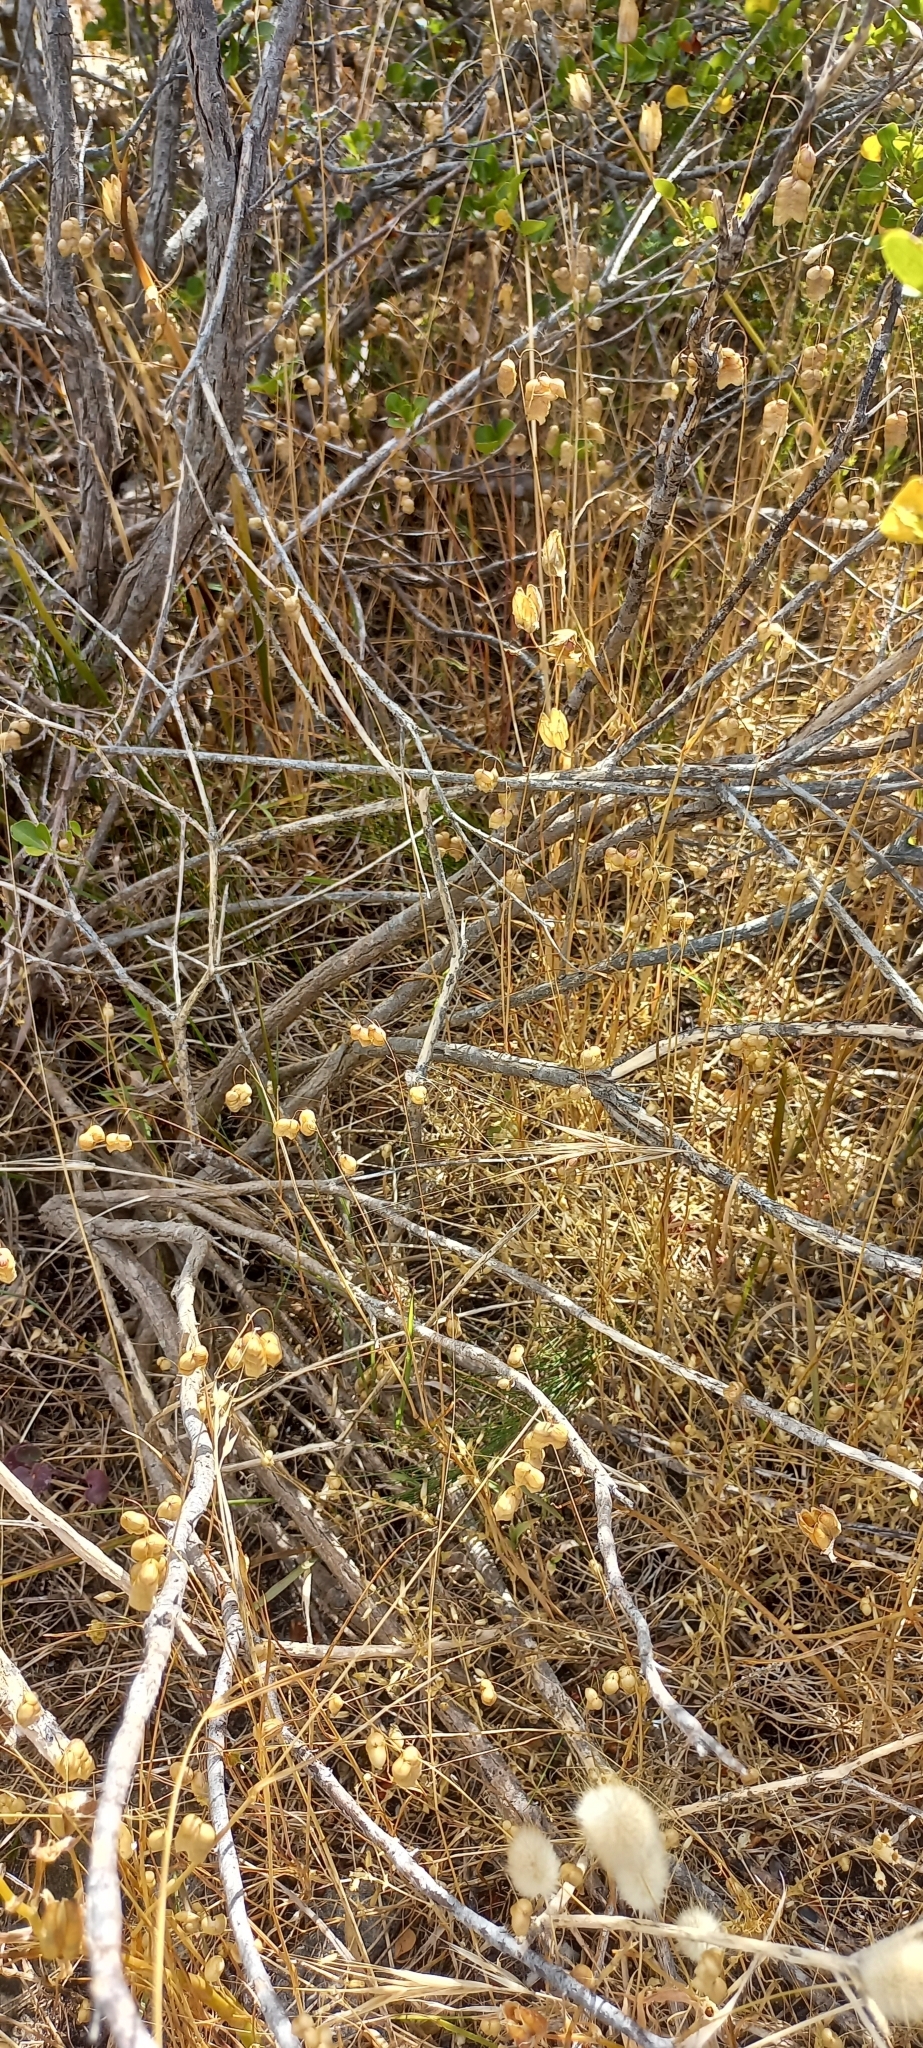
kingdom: Plantae
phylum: Tracheophyta
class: Liliopsida
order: Poales
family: Poaceae
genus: Briza
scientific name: Briza maxima
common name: Big quakinggrass
